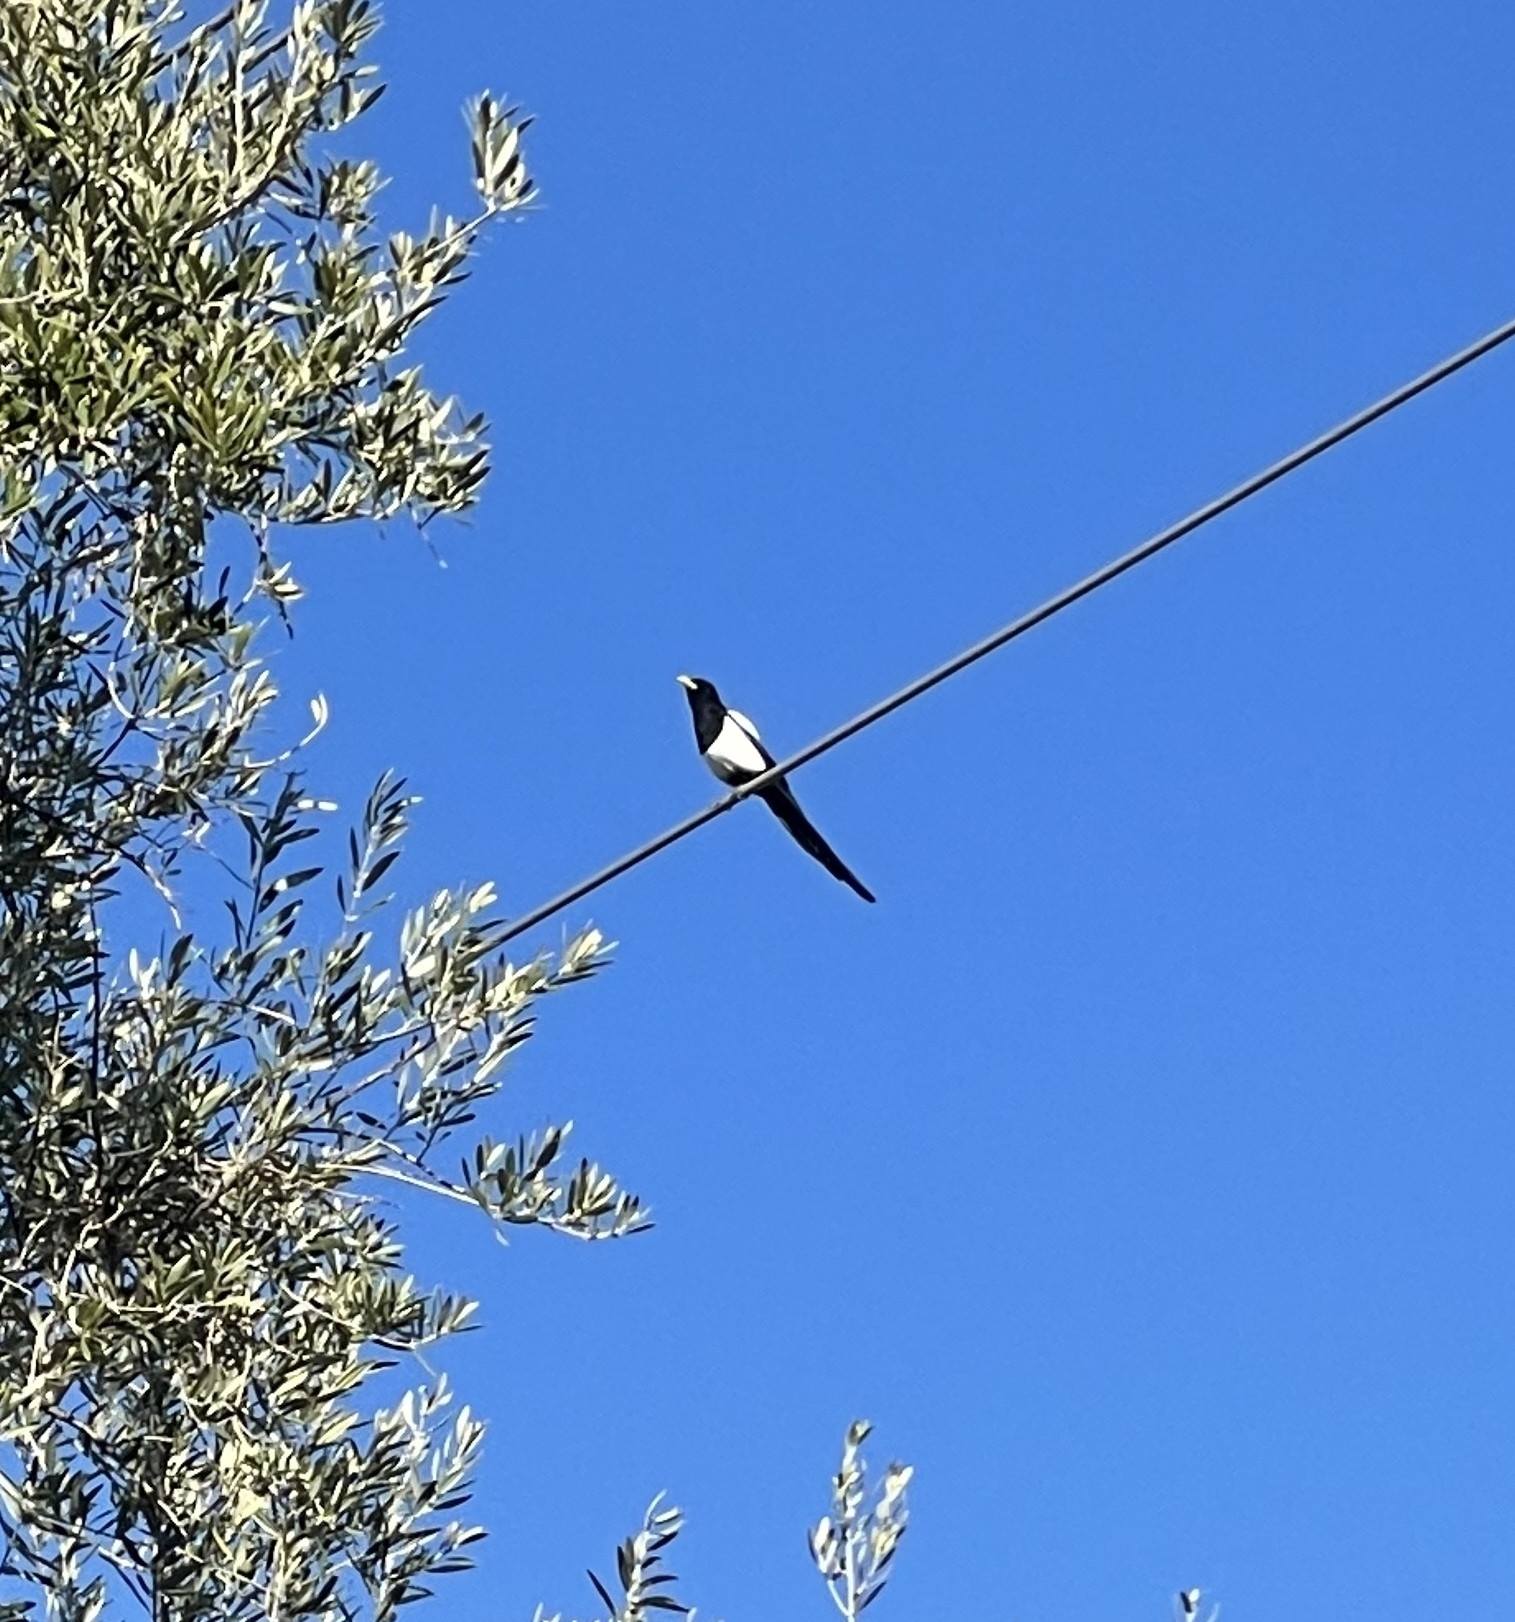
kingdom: Animalia
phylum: Chordata
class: Aves
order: Passeriformes
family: Corvidae
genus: Pica
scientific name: Pica nuttalli
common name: Yellow-billed magpie
